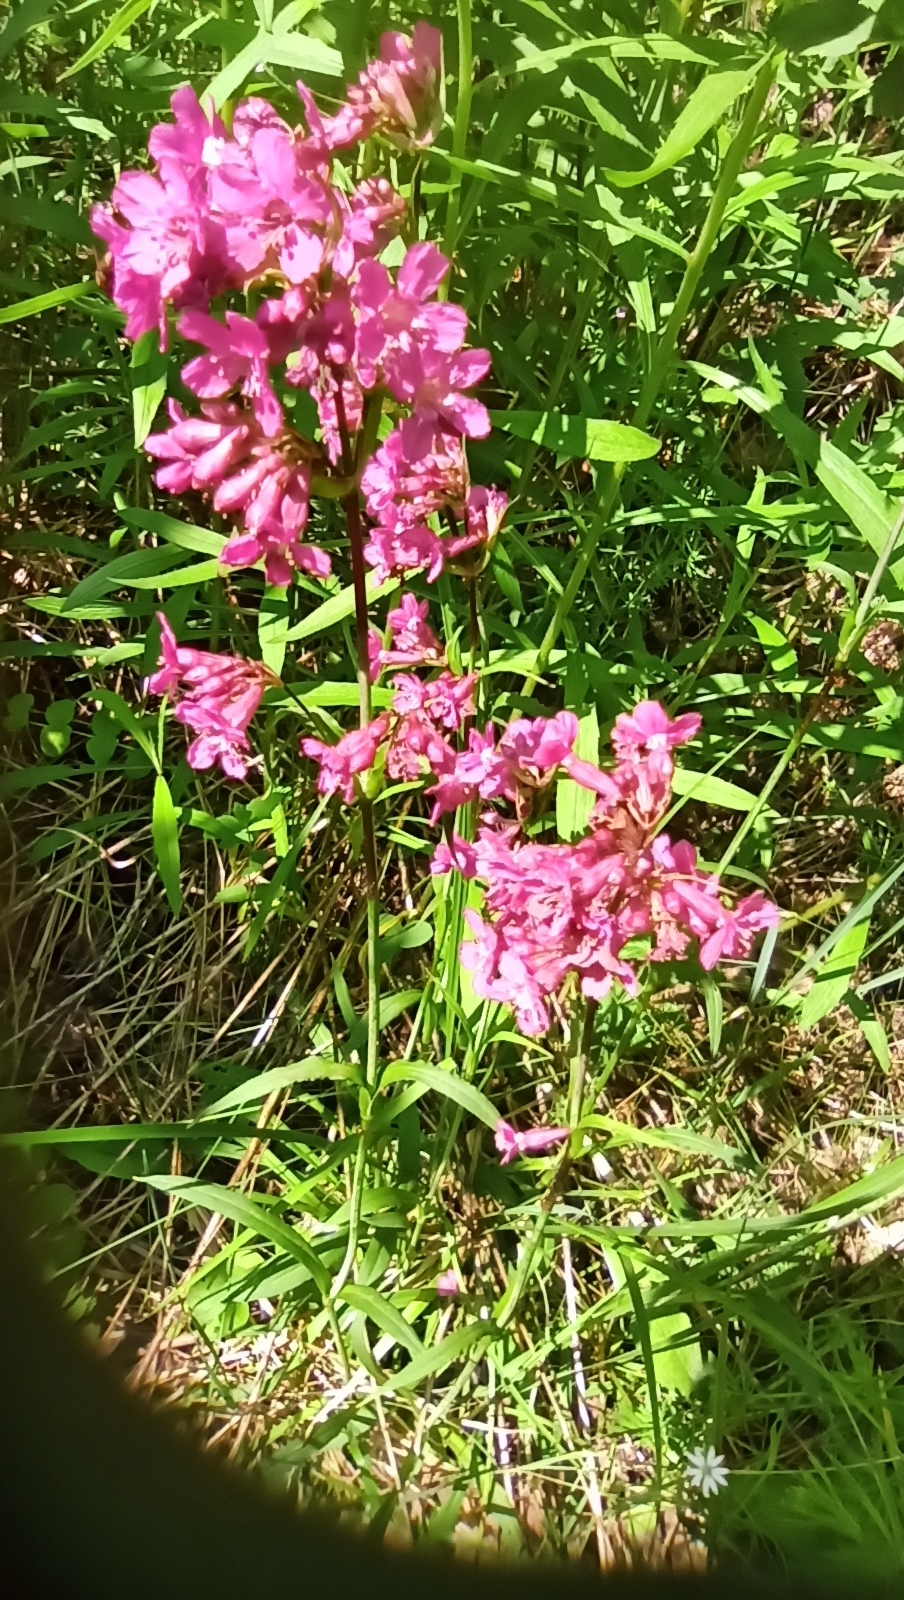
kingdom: Plantae
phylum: Tracheophyta
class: Magnoliopsida
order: Caryophyllales
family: Caryophyllaceae
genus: Viscaria
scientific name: Viscaria vulgaris
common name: Clammy campion
